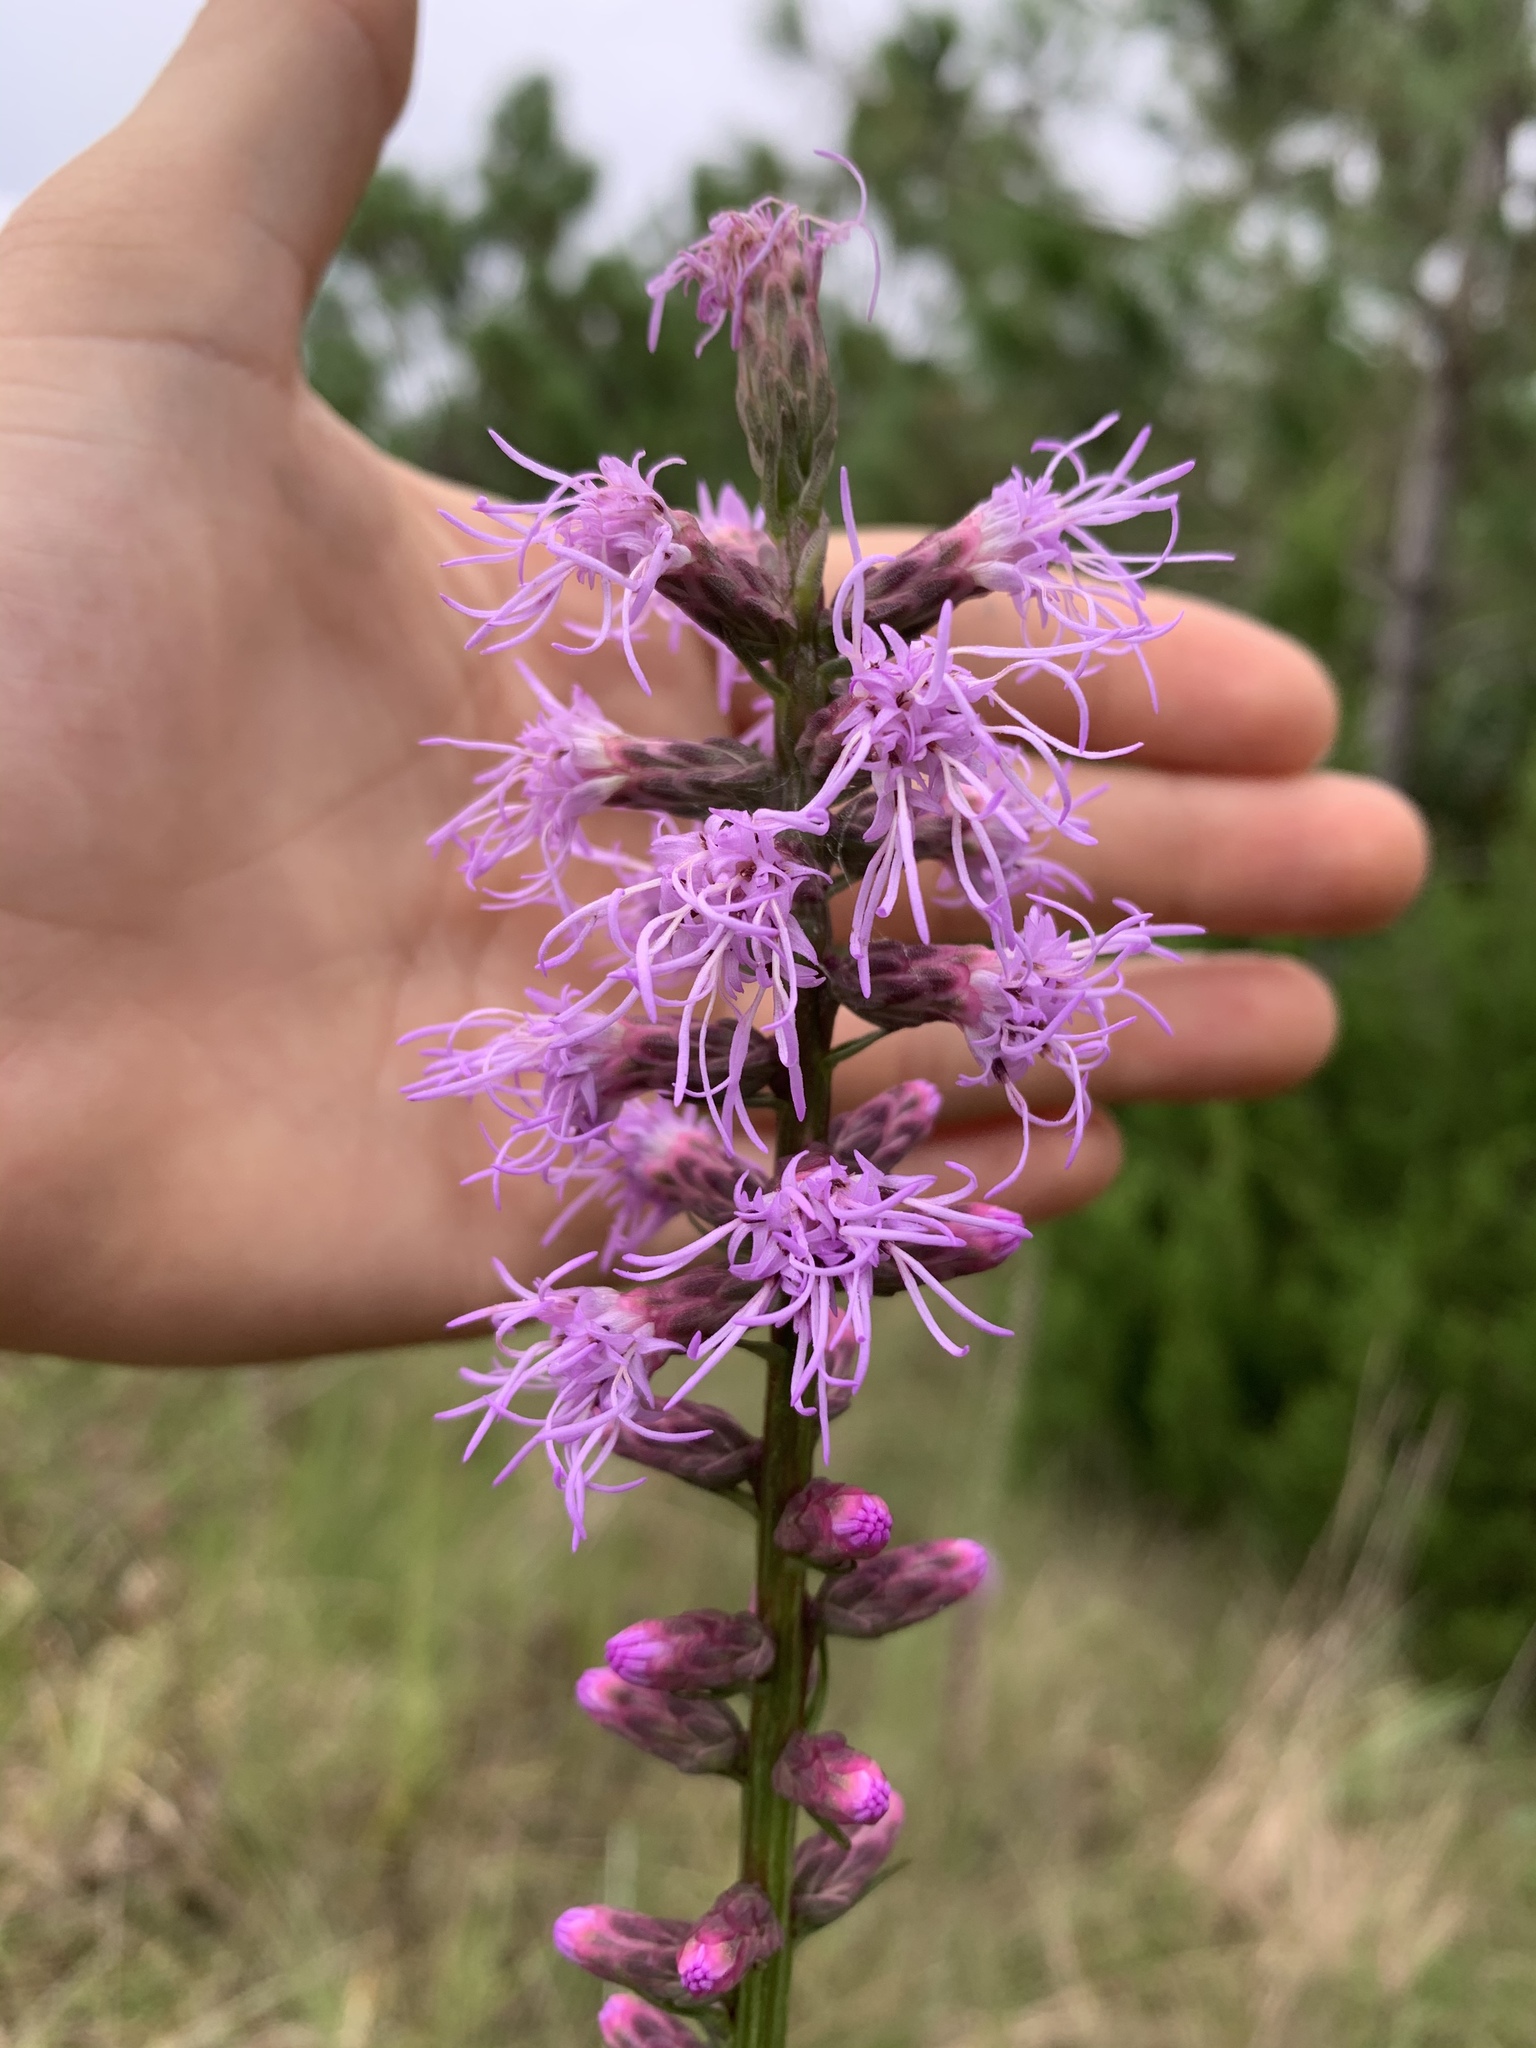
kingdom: Plantae
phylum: Tracheophyta
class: Magnoliopsida
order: Asterales
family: Asteraceae
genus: Liatris
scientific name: Liatris spicata
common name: Florist gayfeather
